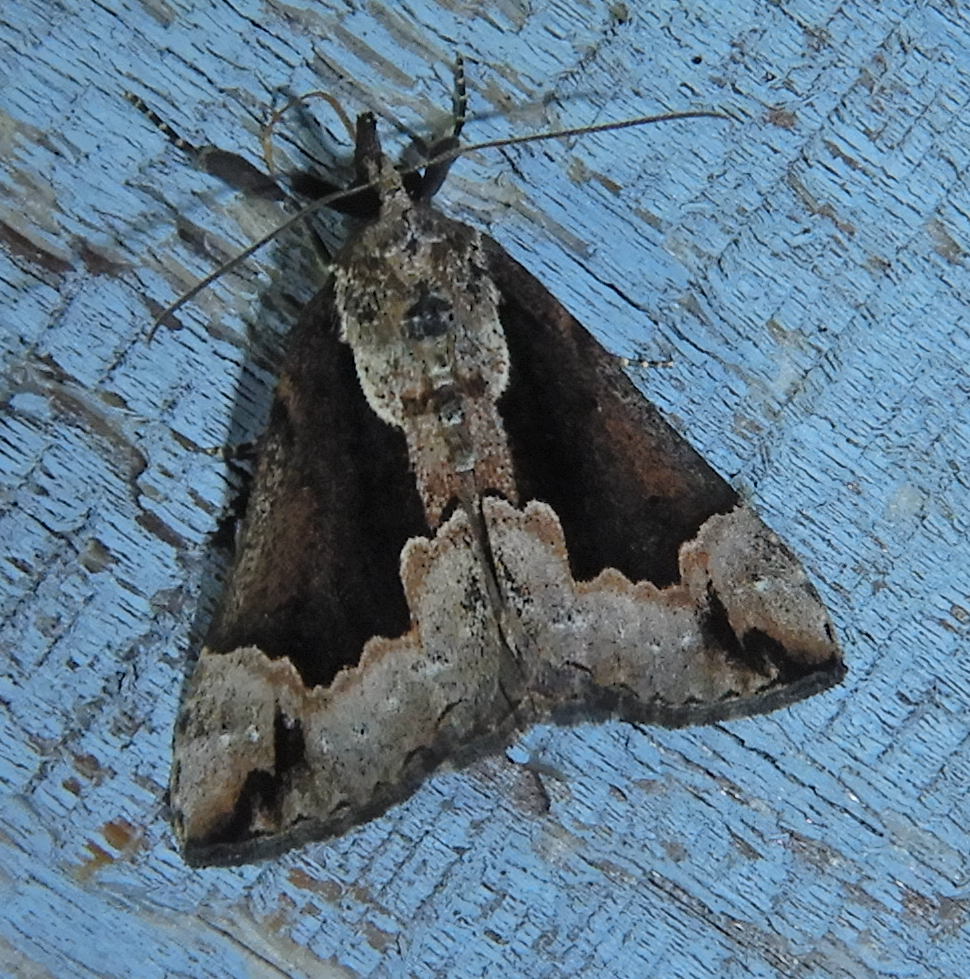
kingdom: Animalia
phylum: Arthropoda
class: Insecta
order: Lepidoptera
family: Erebidae
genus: Hypena
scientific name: Hypena baltimoralis
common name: Baltimore snout
